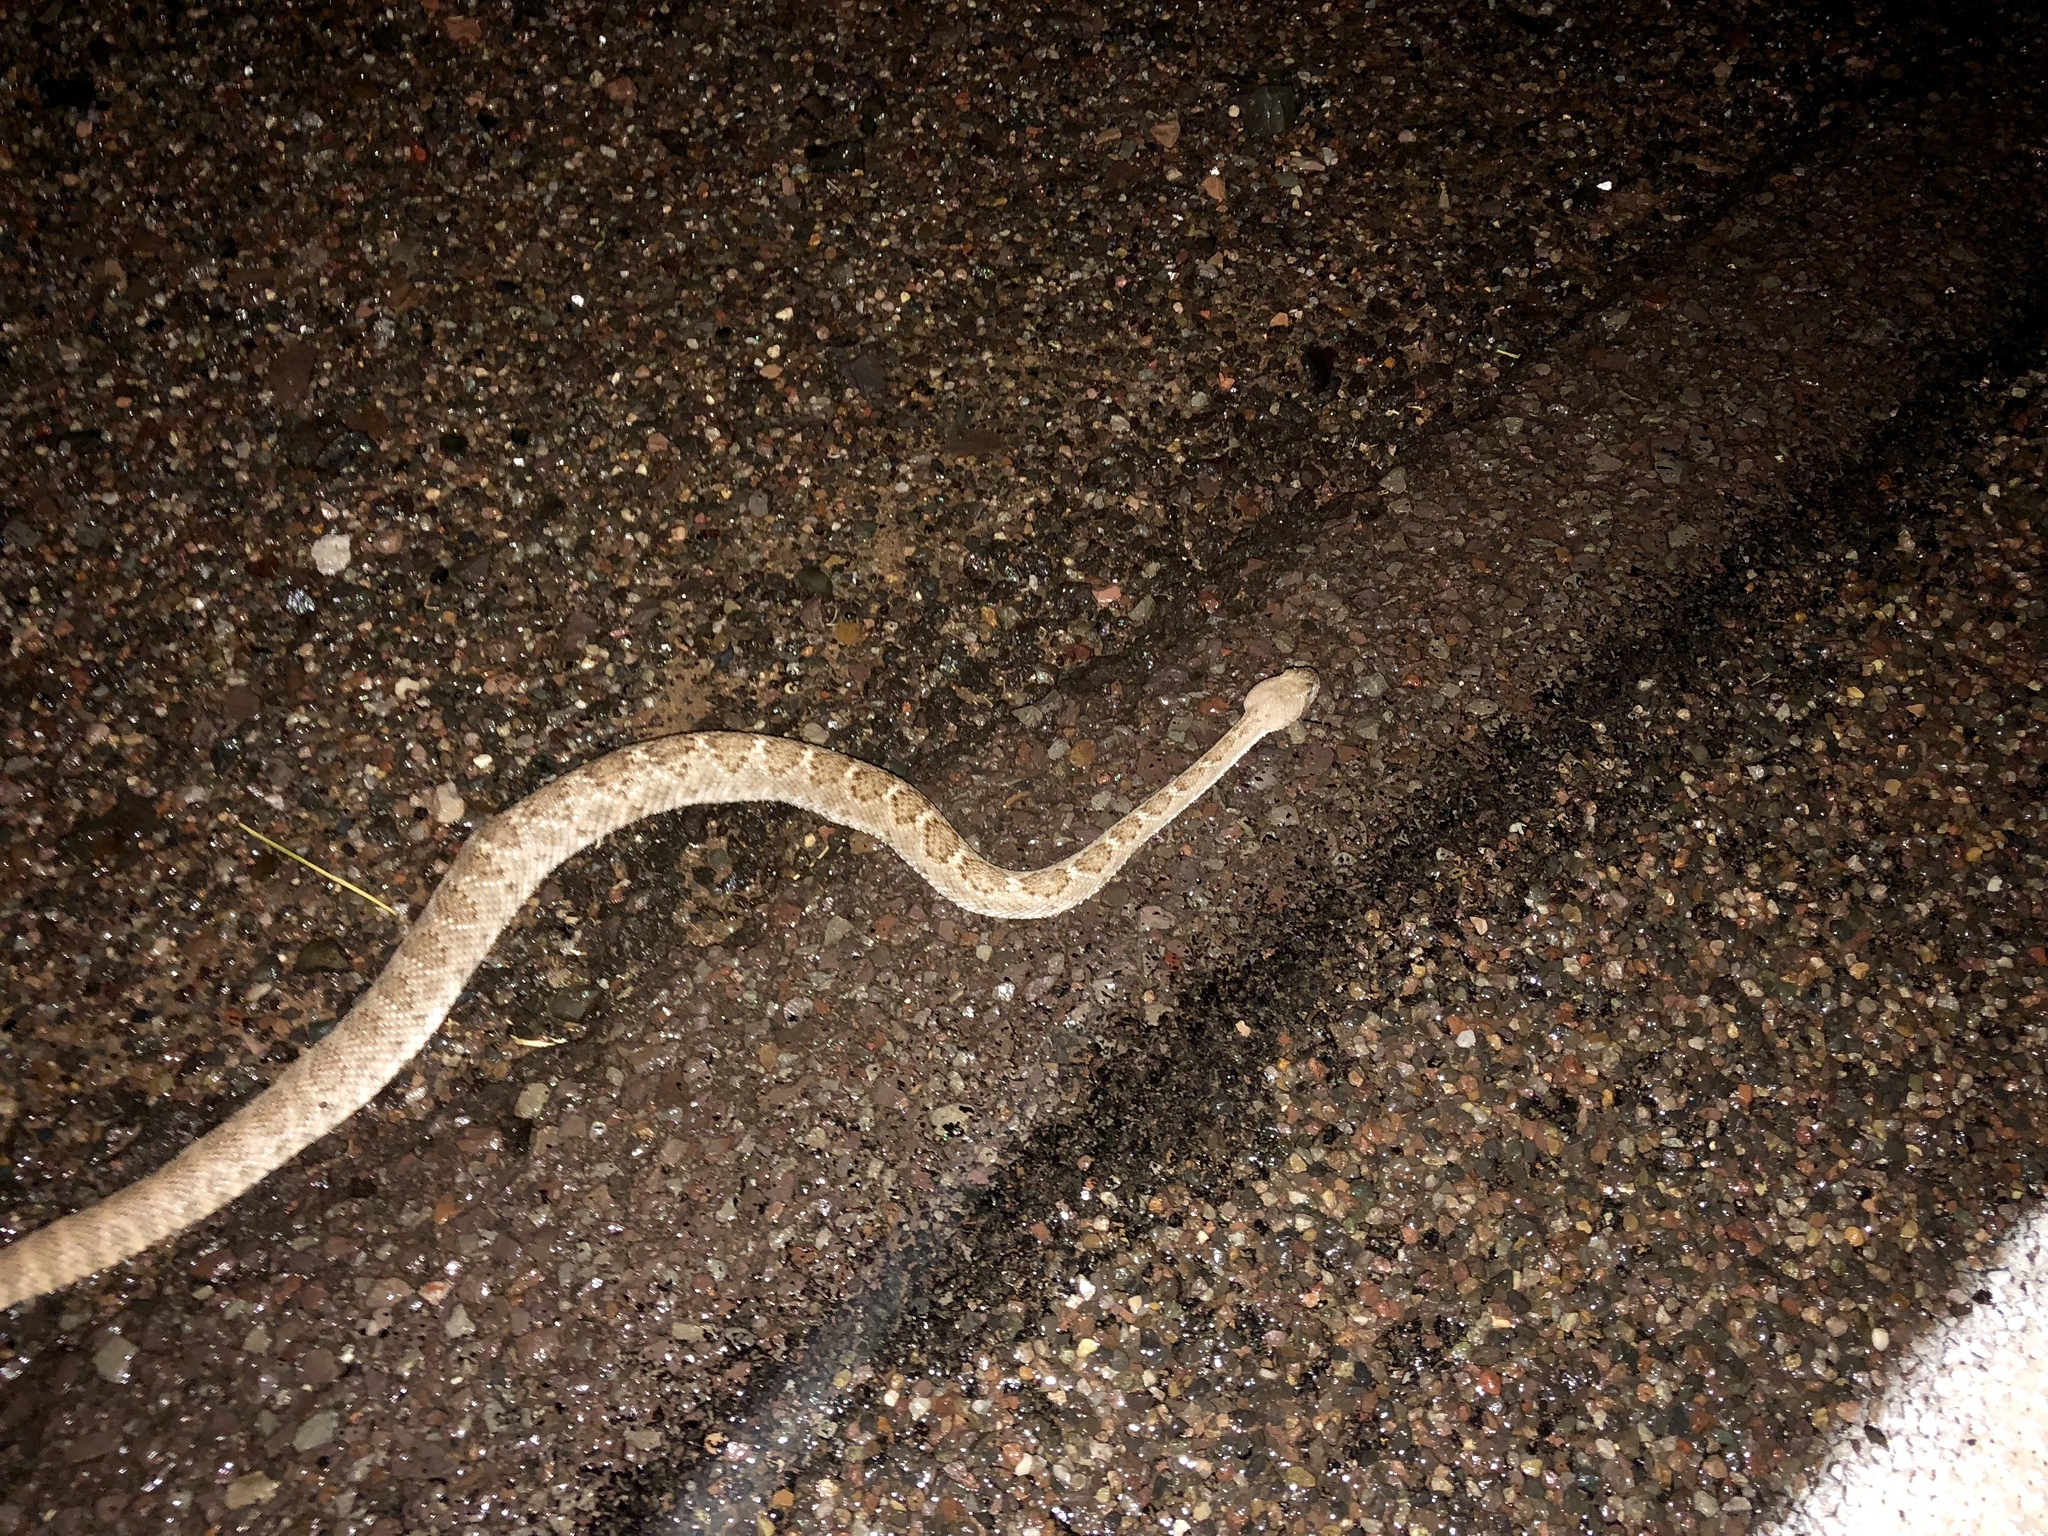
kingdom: Animalia
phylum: Chordata
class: Squamata
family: Viperidae
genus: Crotalus
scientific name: Crotalus atrox
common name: Western diamond-backed rattlesnake
